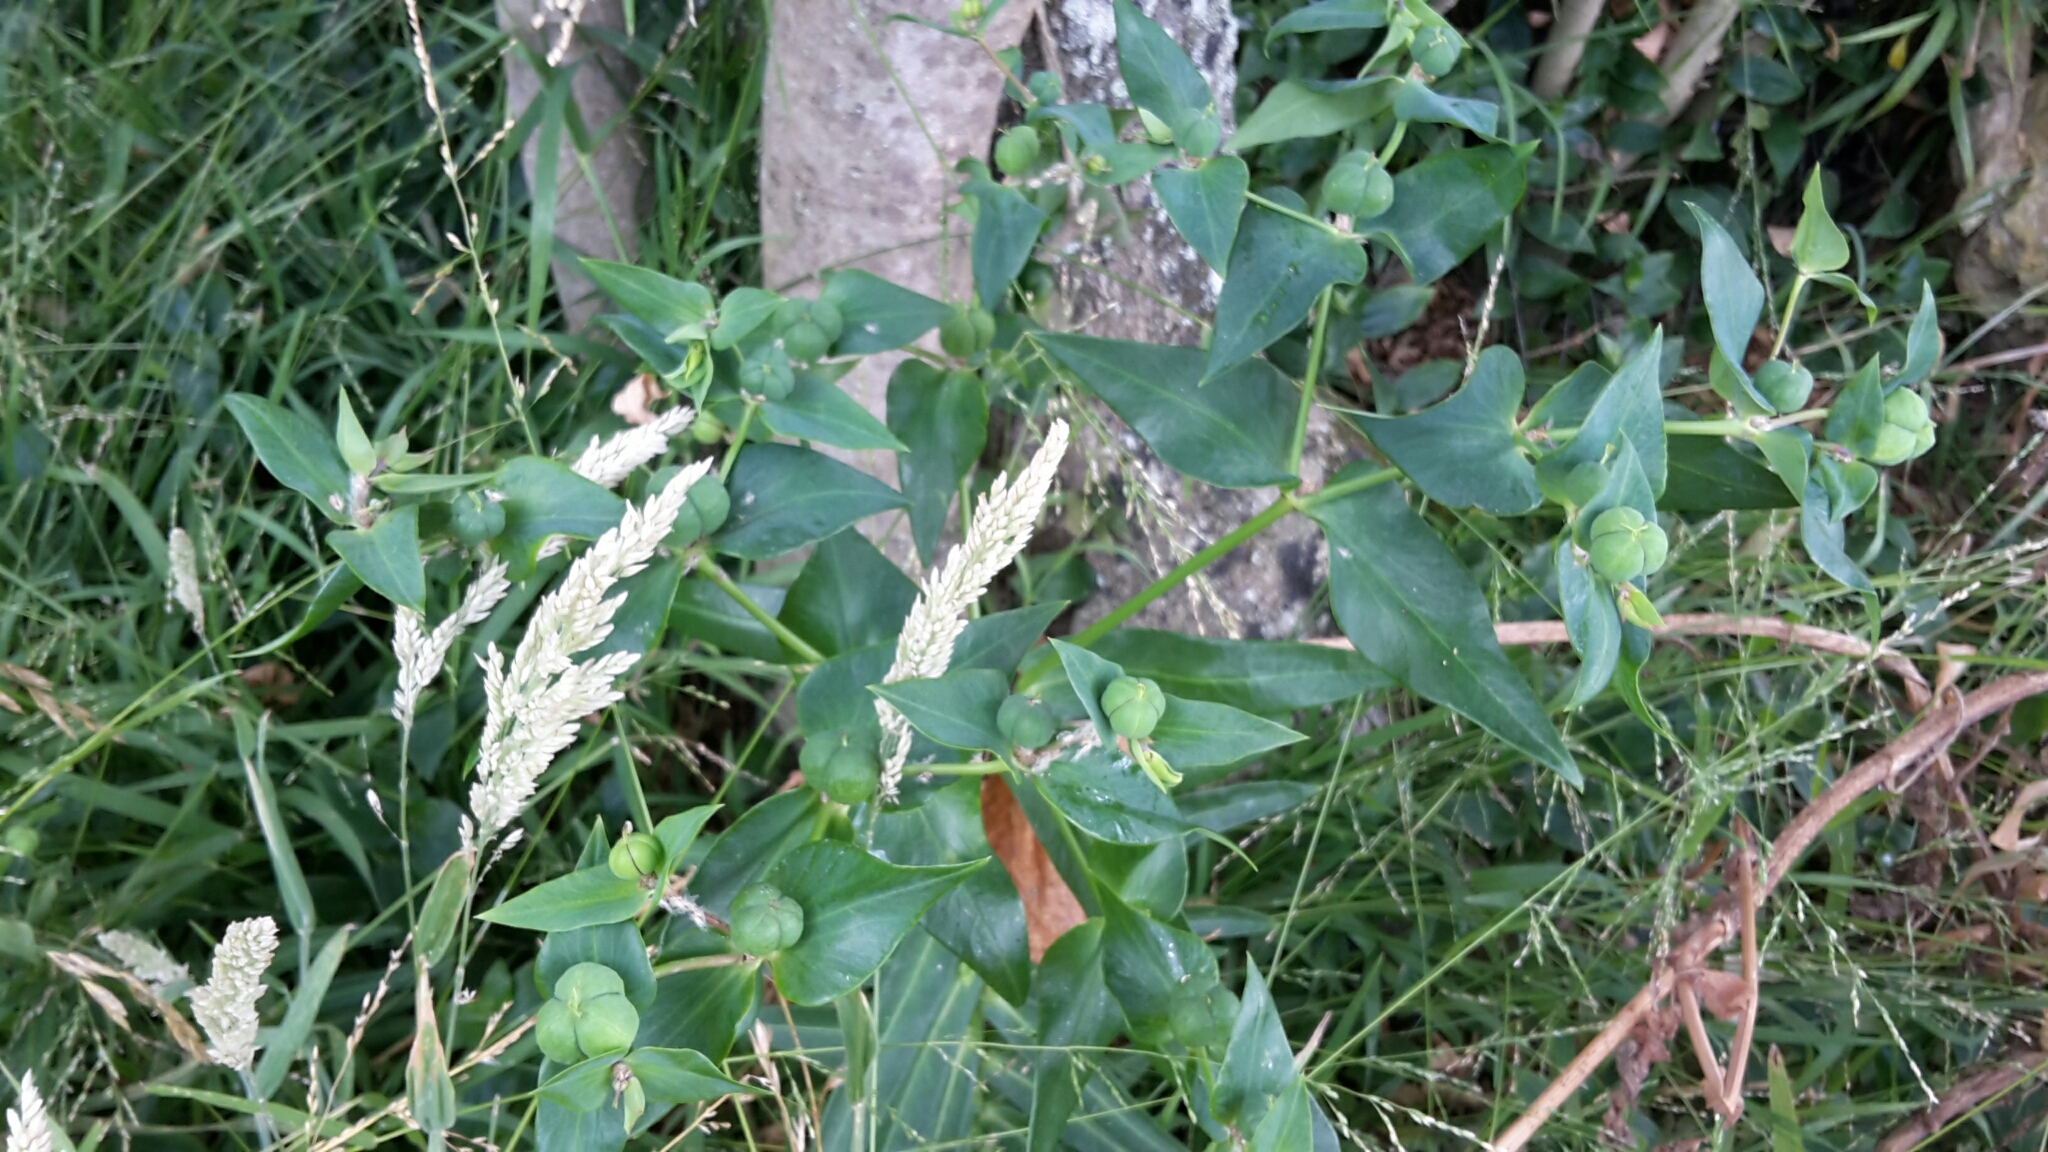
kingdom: Plantae
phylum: Tracheophyta
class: Magnoliopsida
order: Malpighiales
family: Euphorbiaceae
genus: Euphorbia
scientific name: Euphorbia lathyris
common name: Caper spurge
